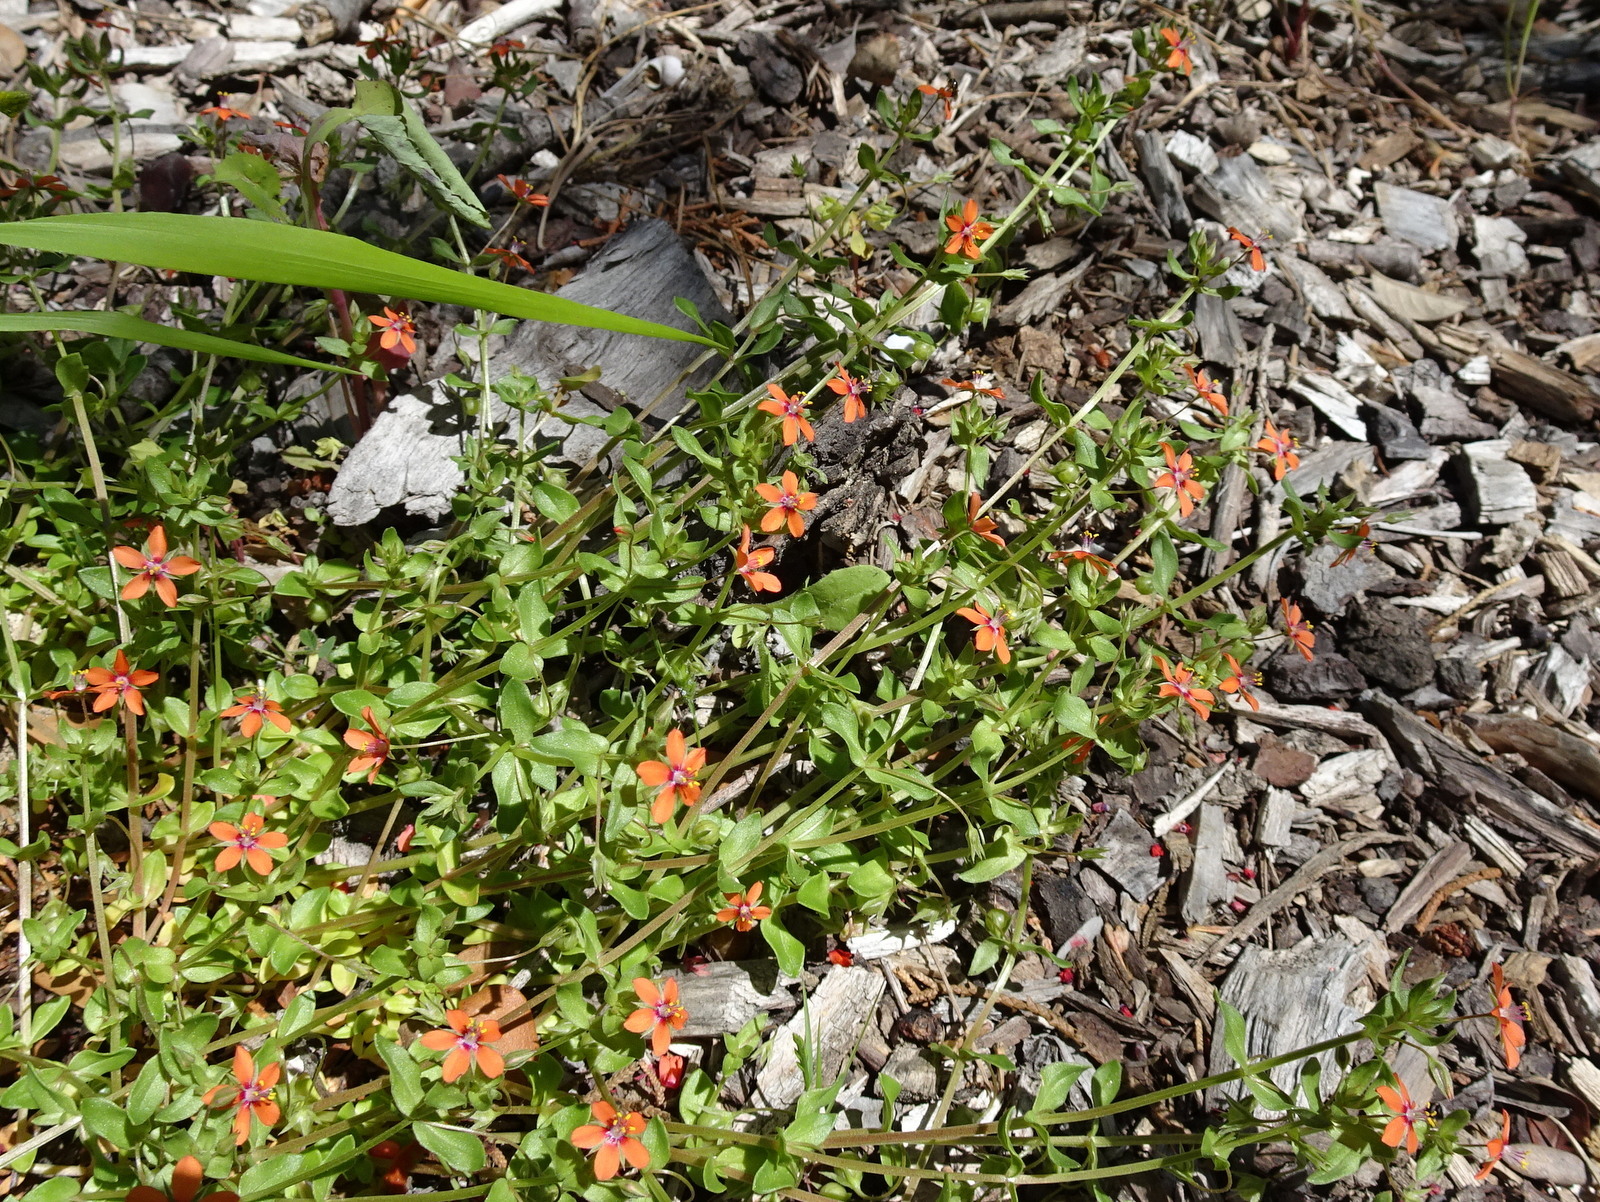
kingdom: Plantae
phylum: Tracheophyta
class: Magnoliopsida
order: Ericales
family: Primulaceae
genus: Lysimachia
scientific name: Lysimachia arvensis
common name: Scarlet pimpernel
